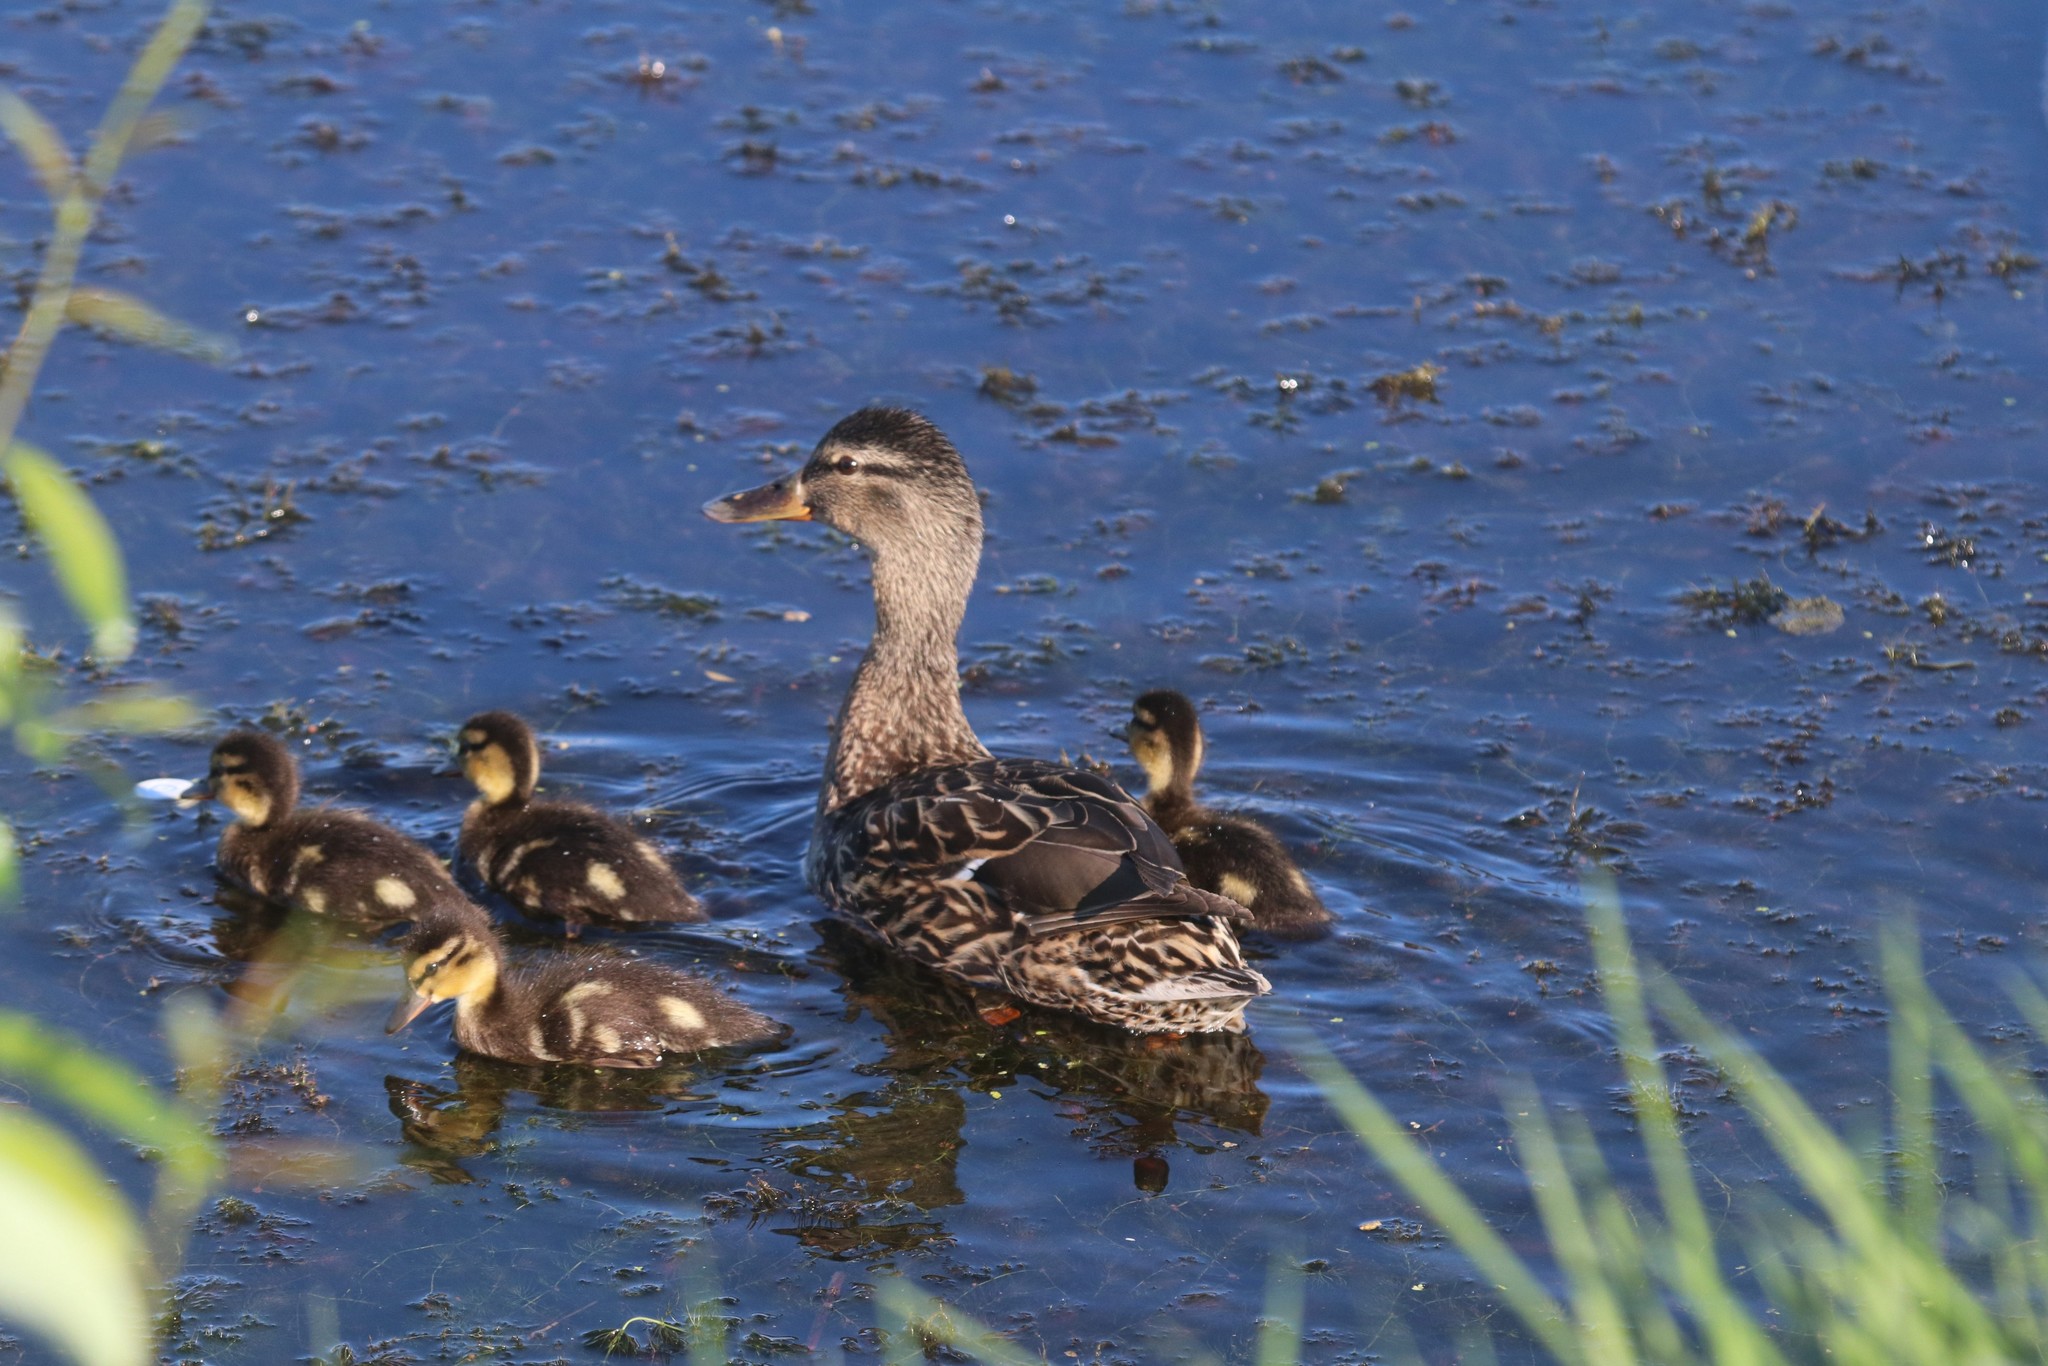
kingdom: Animalia
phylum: Chordata
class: Aves
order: Anseriformes
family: Anatidae
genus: Anas
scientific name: Anas platyrhynchos
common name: Mallard
